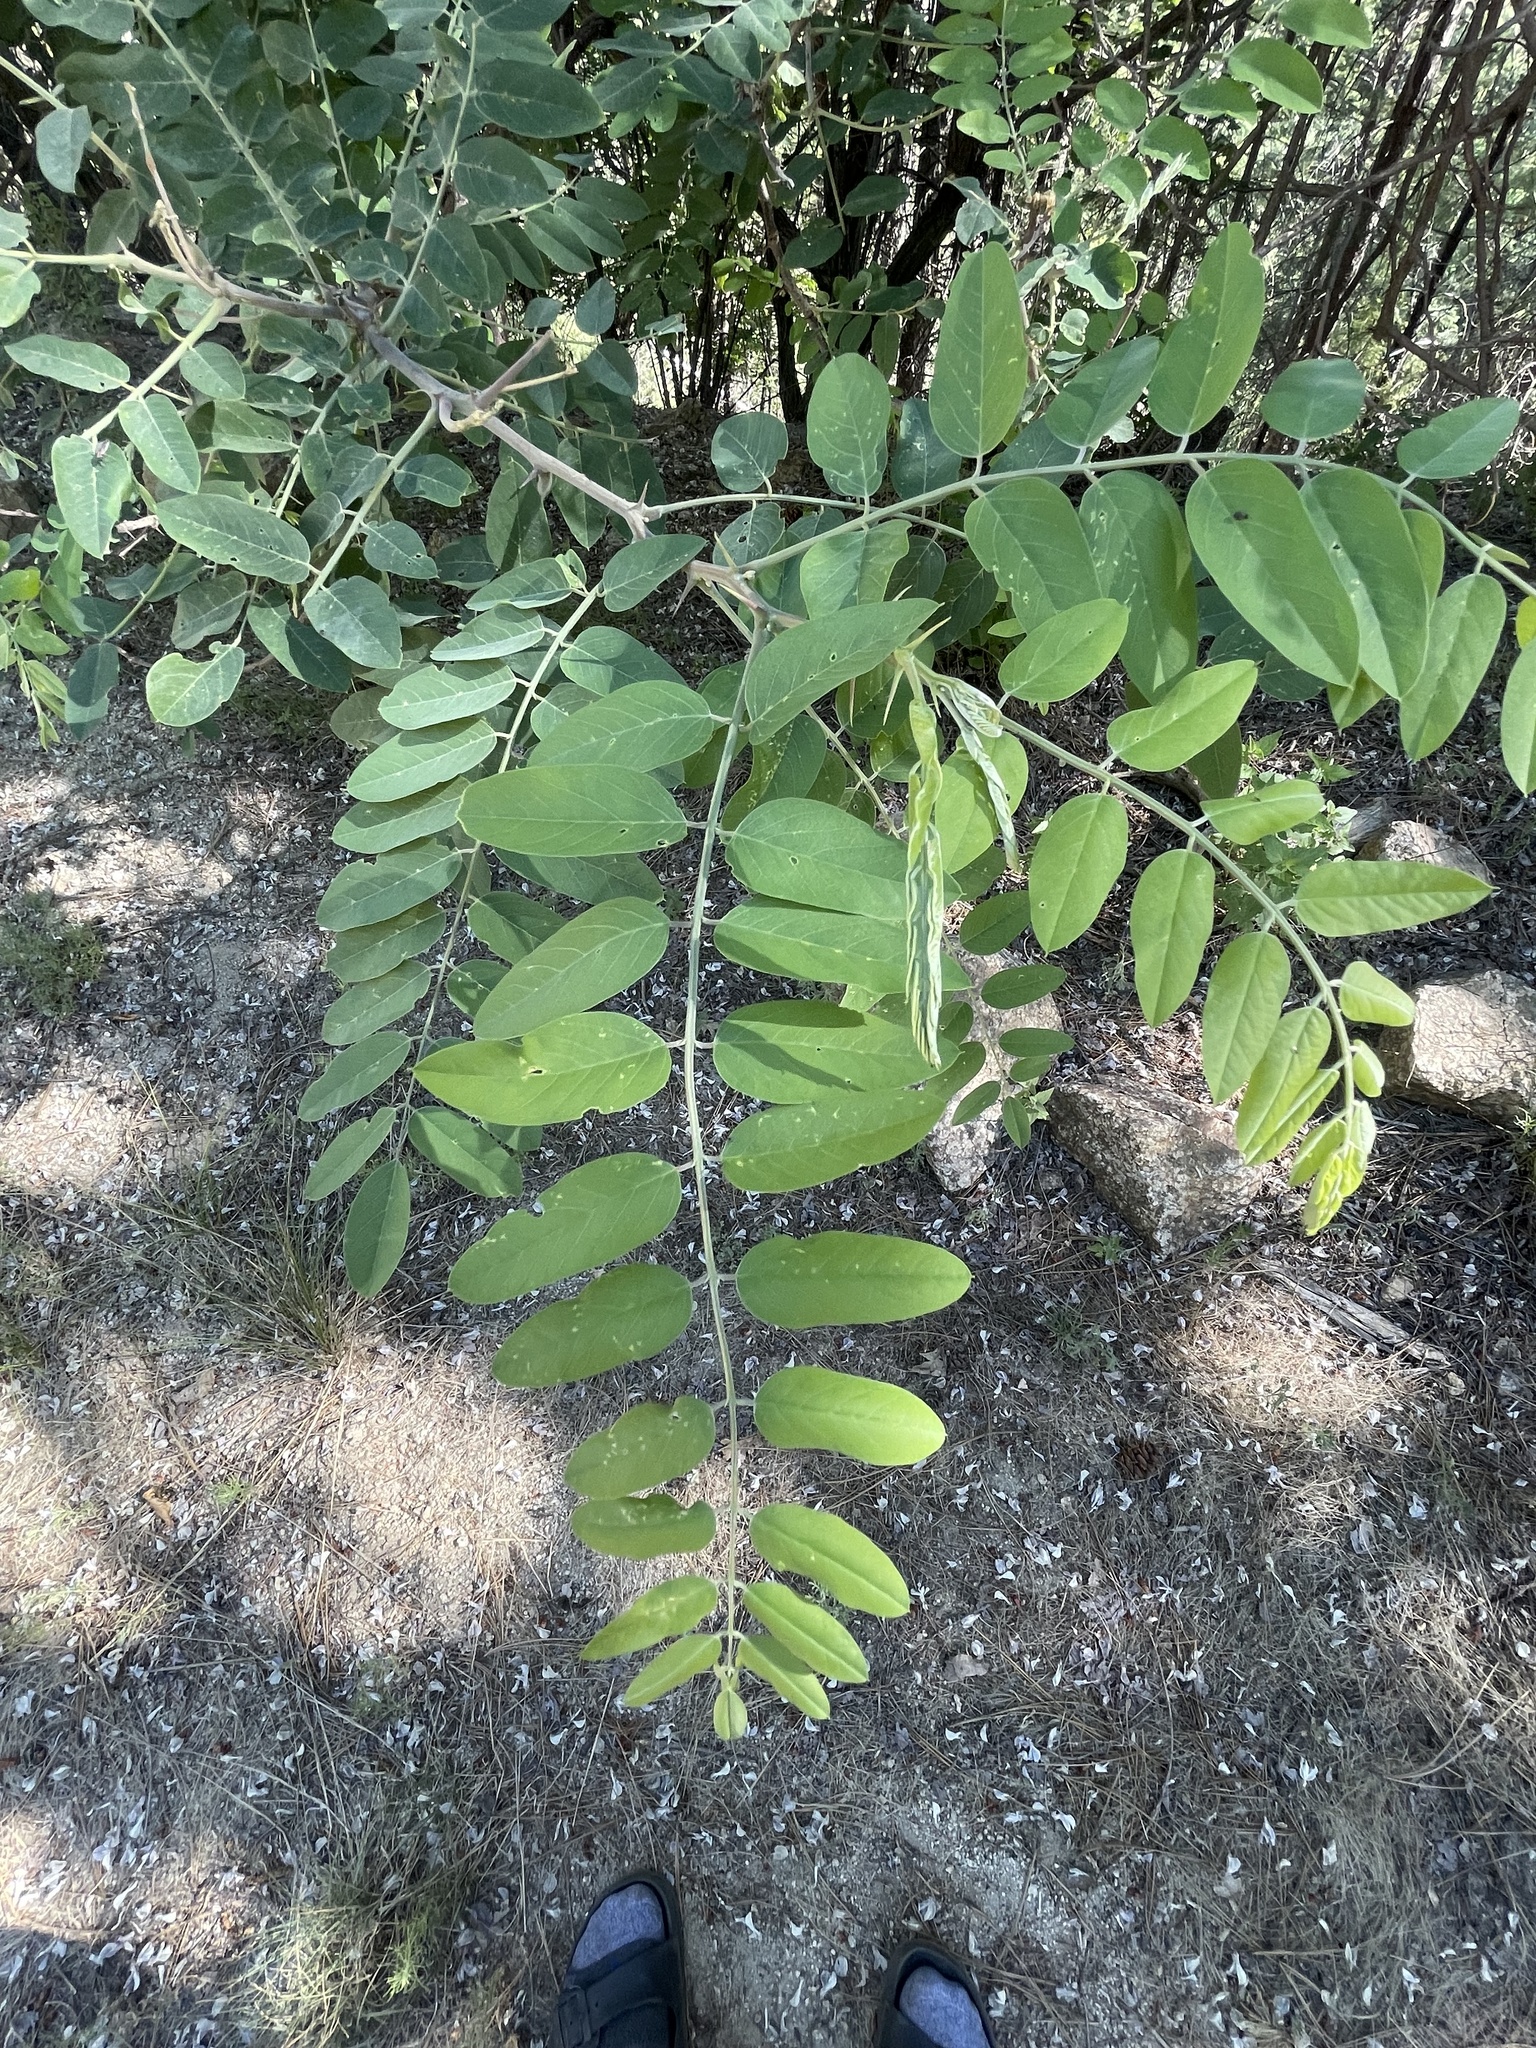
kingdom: Plantae
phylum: Tracheophyta
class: Magnoliopsida
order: Fabales
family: Fabaceae
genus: Robinia
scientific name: Robinia neomexicana
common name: New mexico locust
